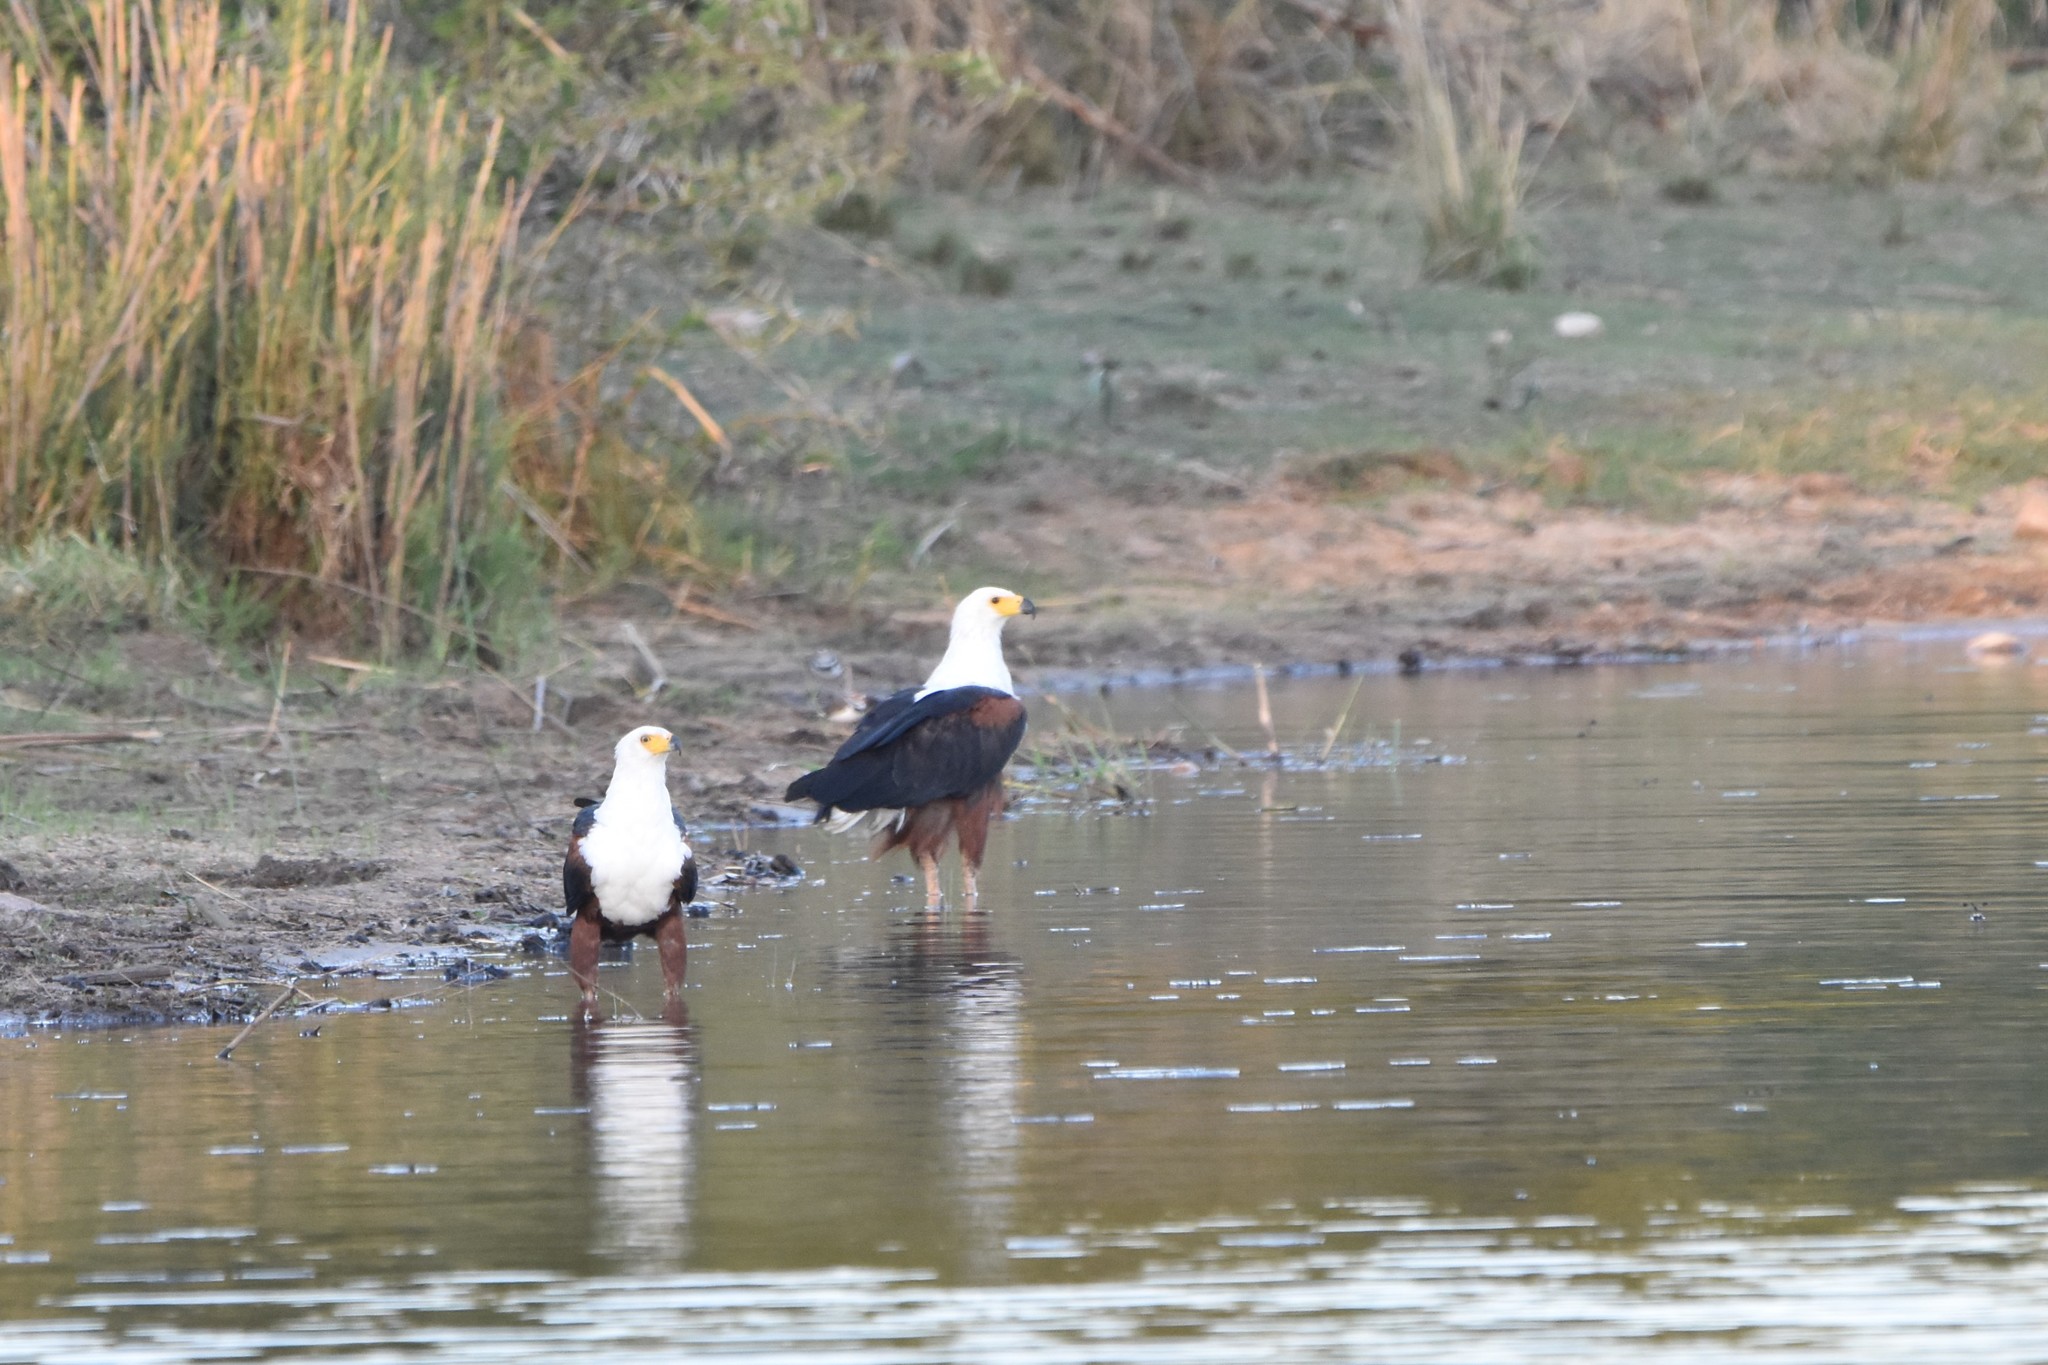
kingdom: Animalia
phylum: Chordata
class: Aves
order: Accipitriformes
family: Accipitridae
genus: Haliaeetus
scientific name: Haliaeetus vocifer
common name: African fish eagle
